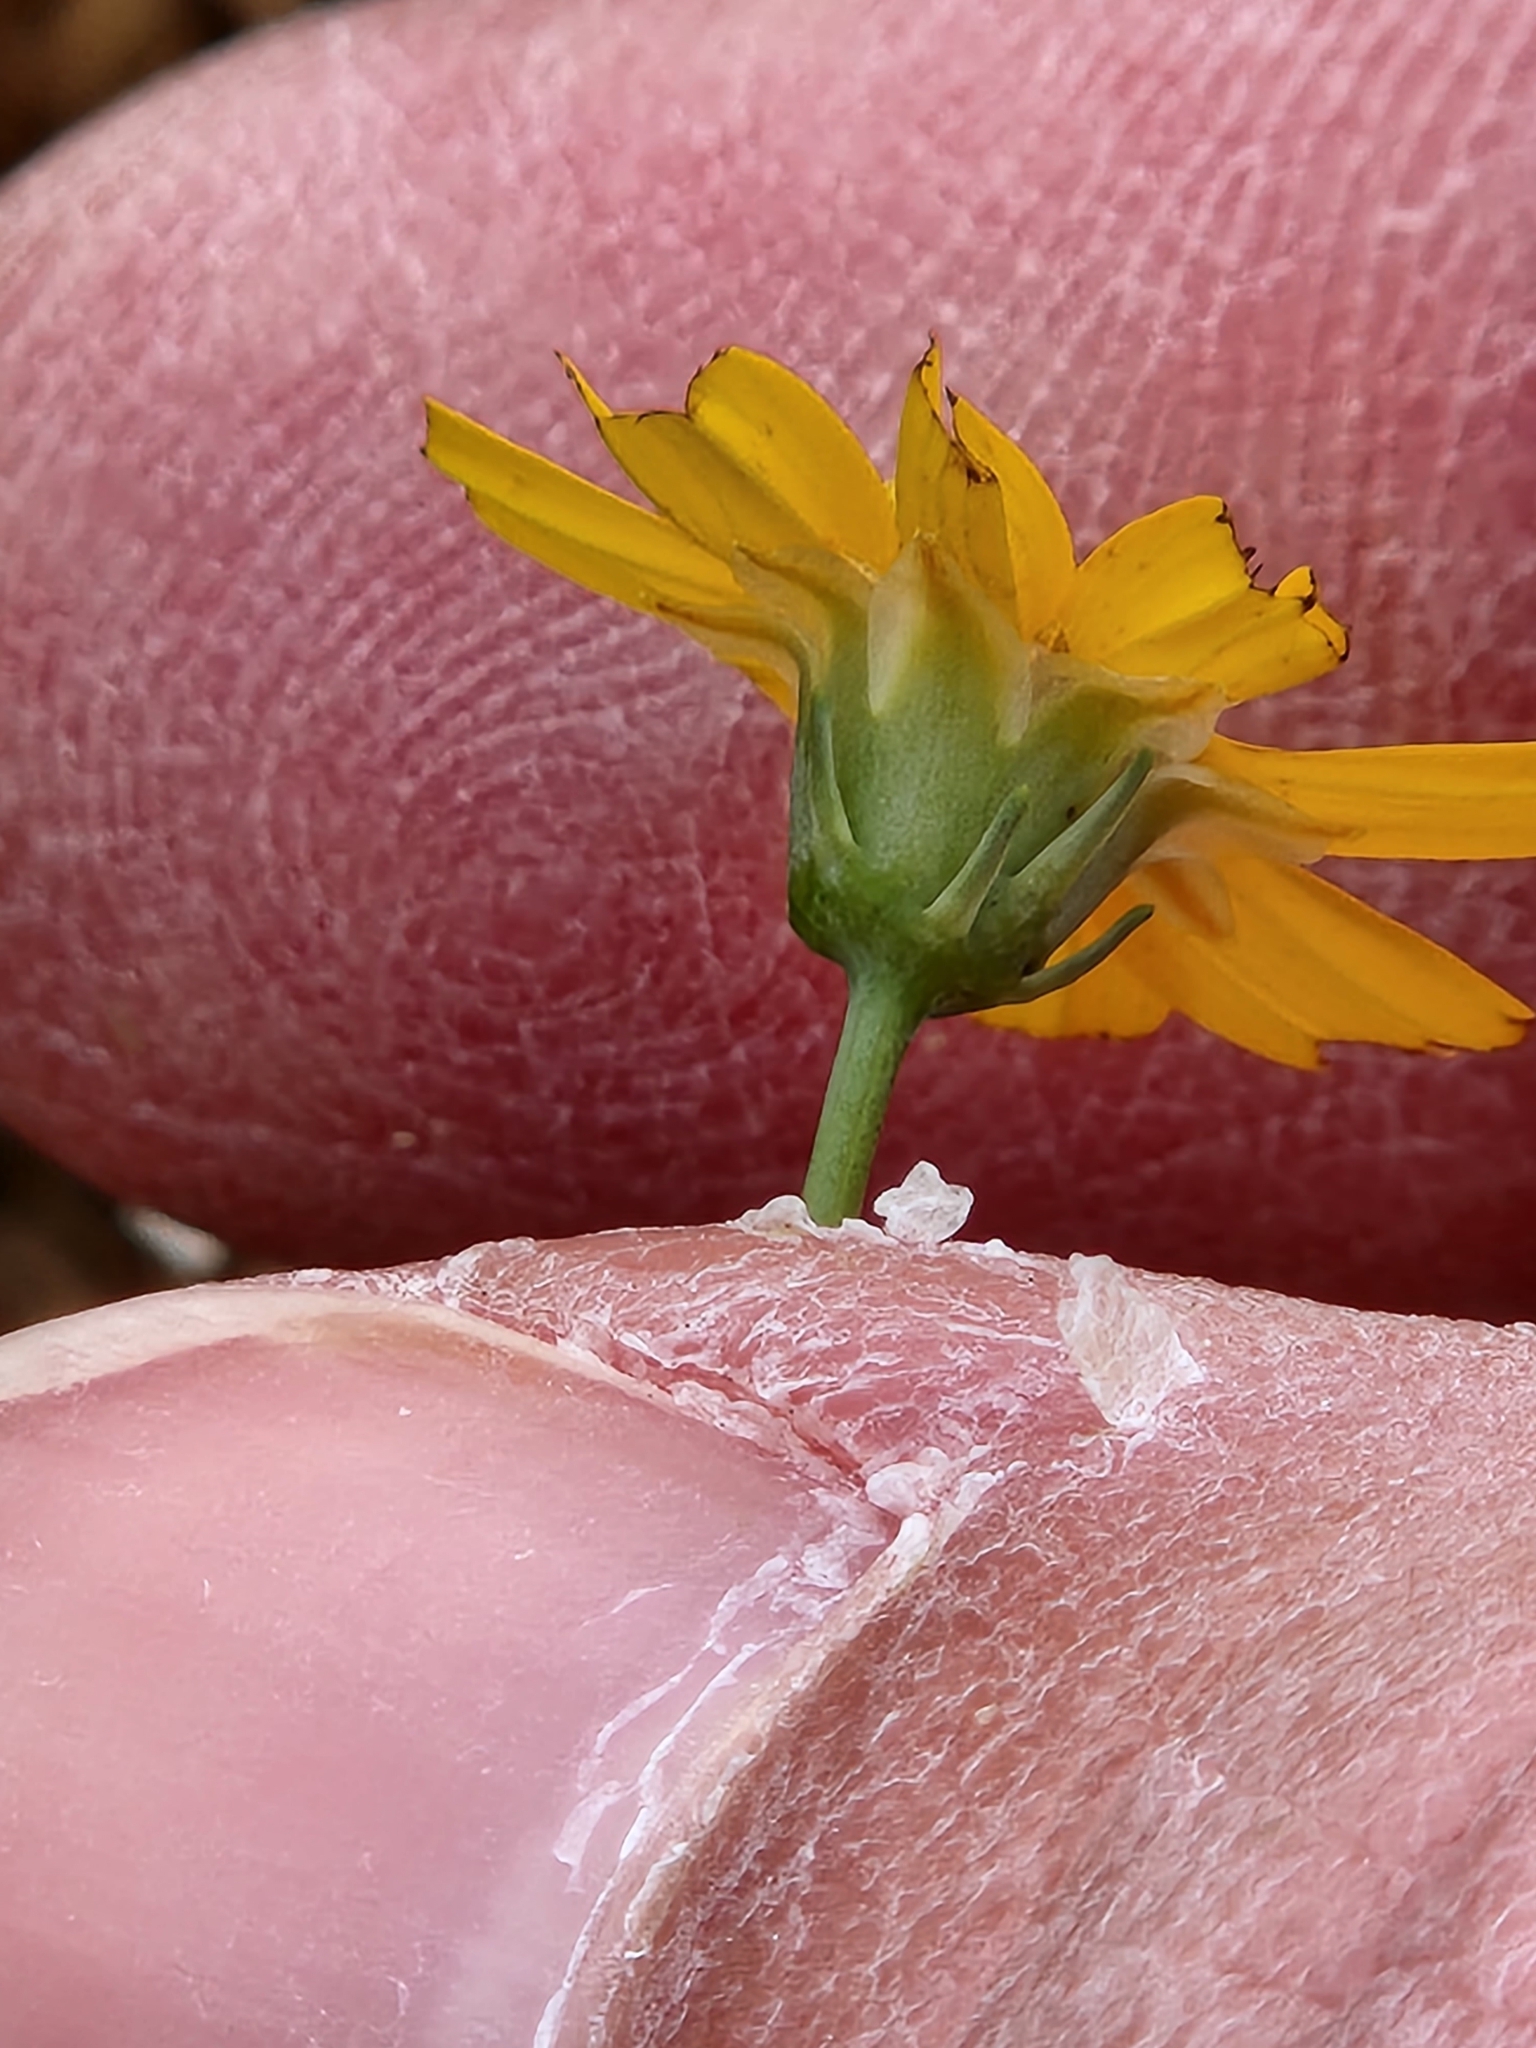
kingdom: Plantae
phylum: Tracheophyta
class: Magnoliopsida
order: Asterales
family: Asteraceae
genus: Thelesperma
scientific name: Thelesperma simplicifolium
